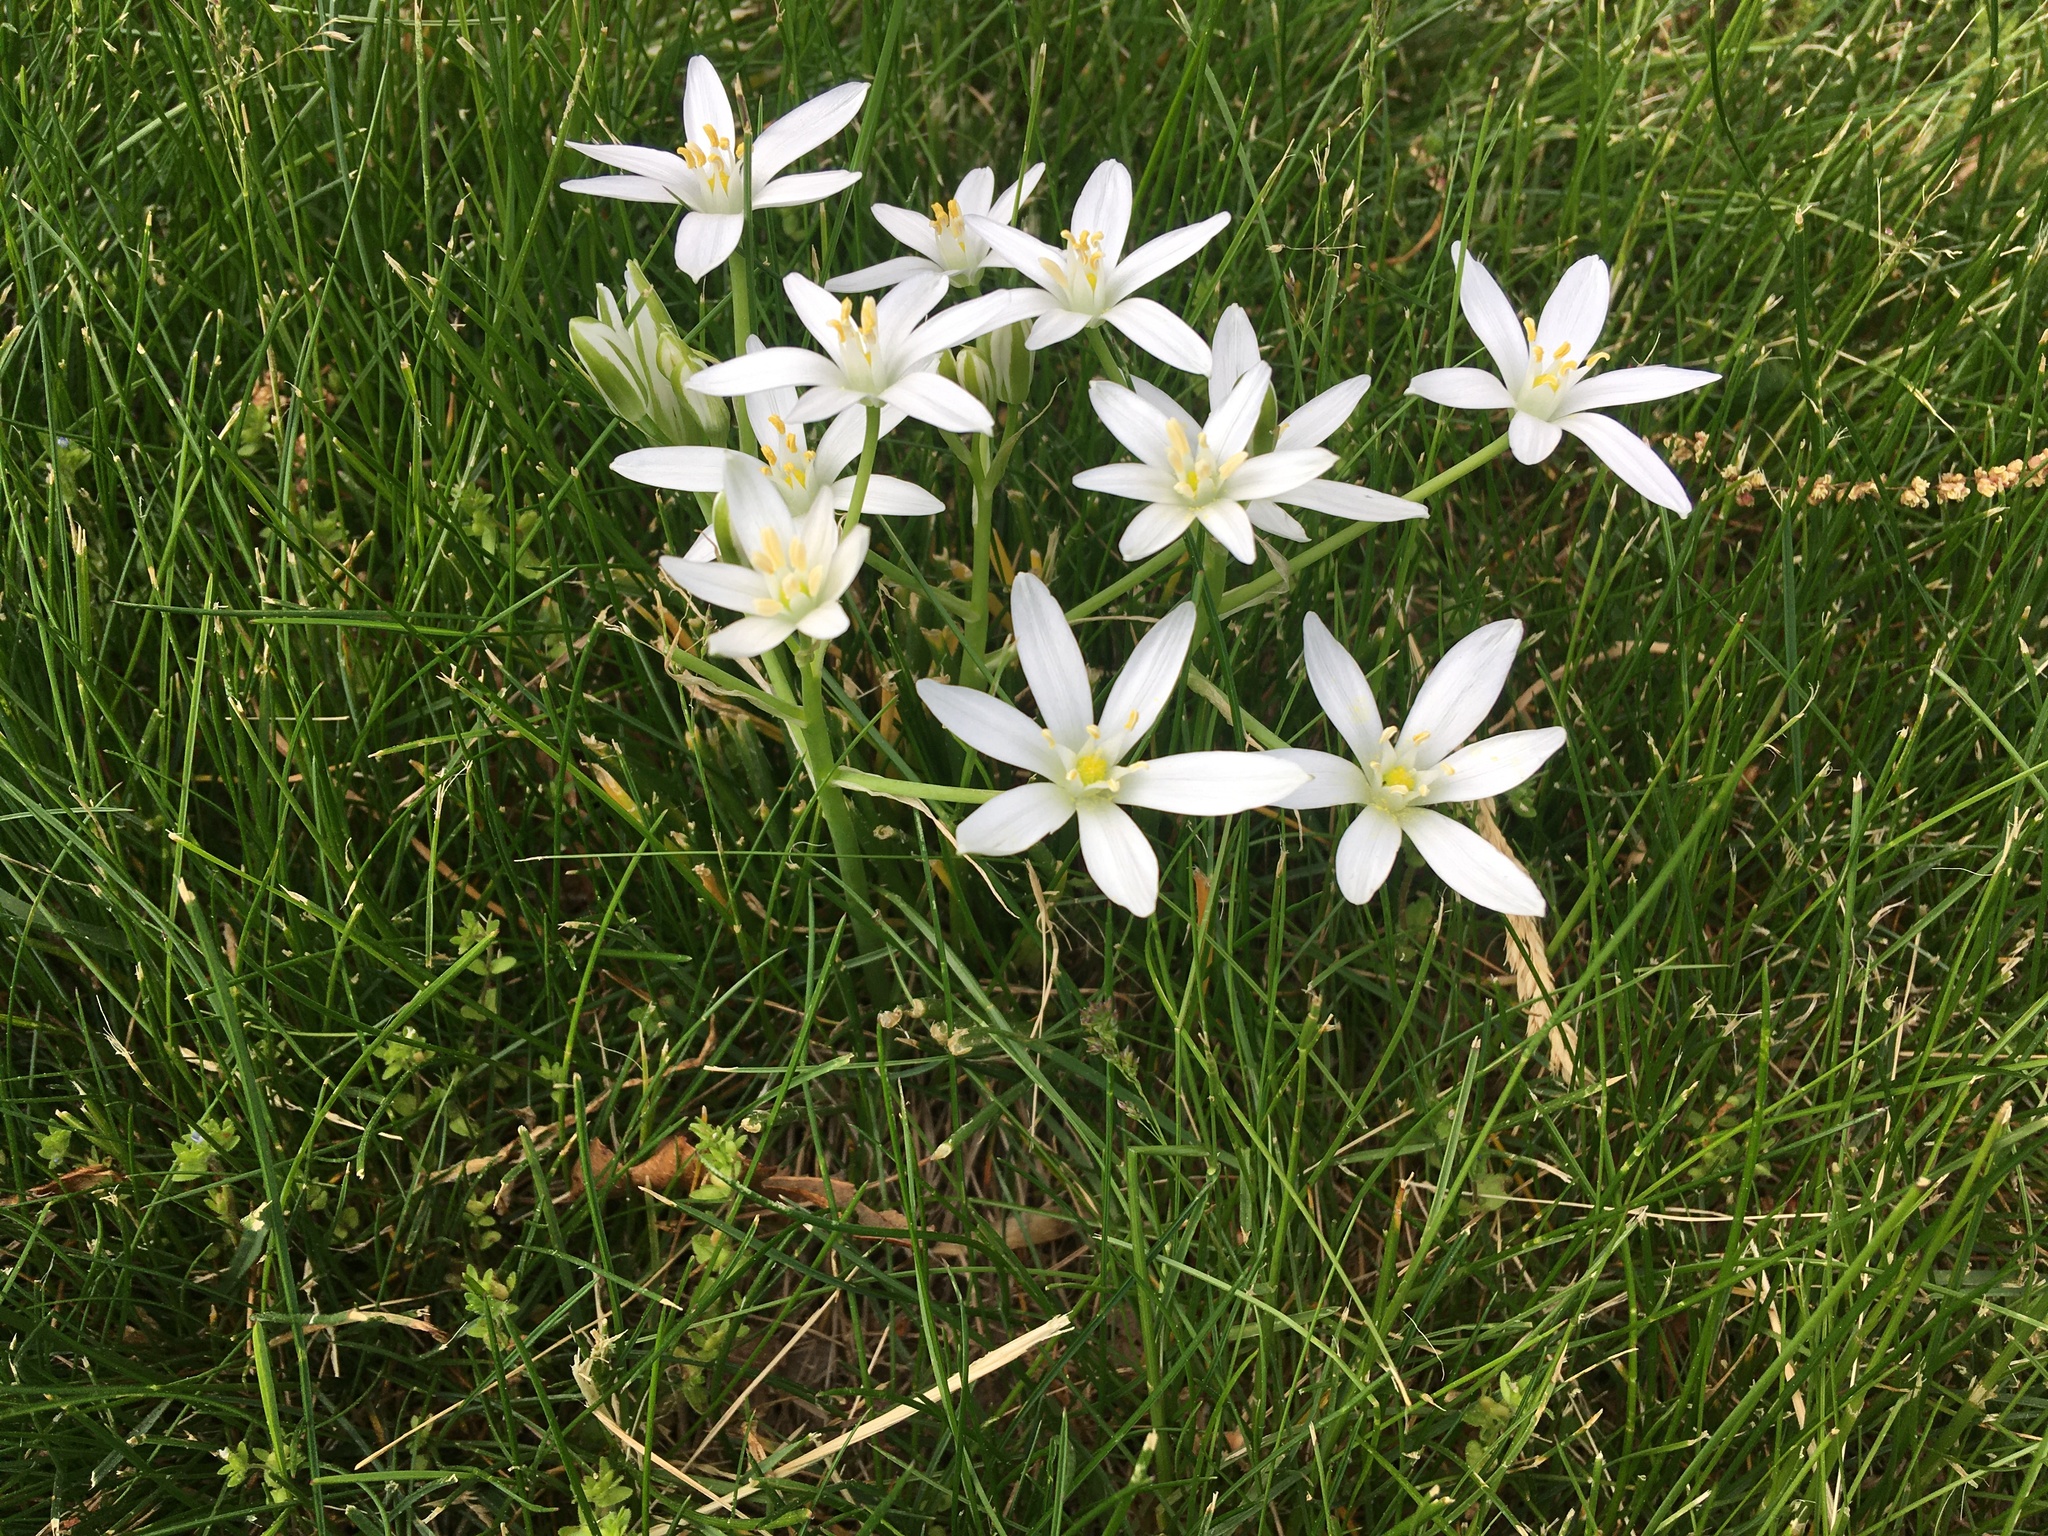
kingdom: Plantae
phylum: Tracheophyta
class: Liliopsida
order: Asparagales
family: Asparagaceae
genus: Ornithogalum
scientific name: Ornithogalum umbellatum
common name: Garden star-of-bethlehem
